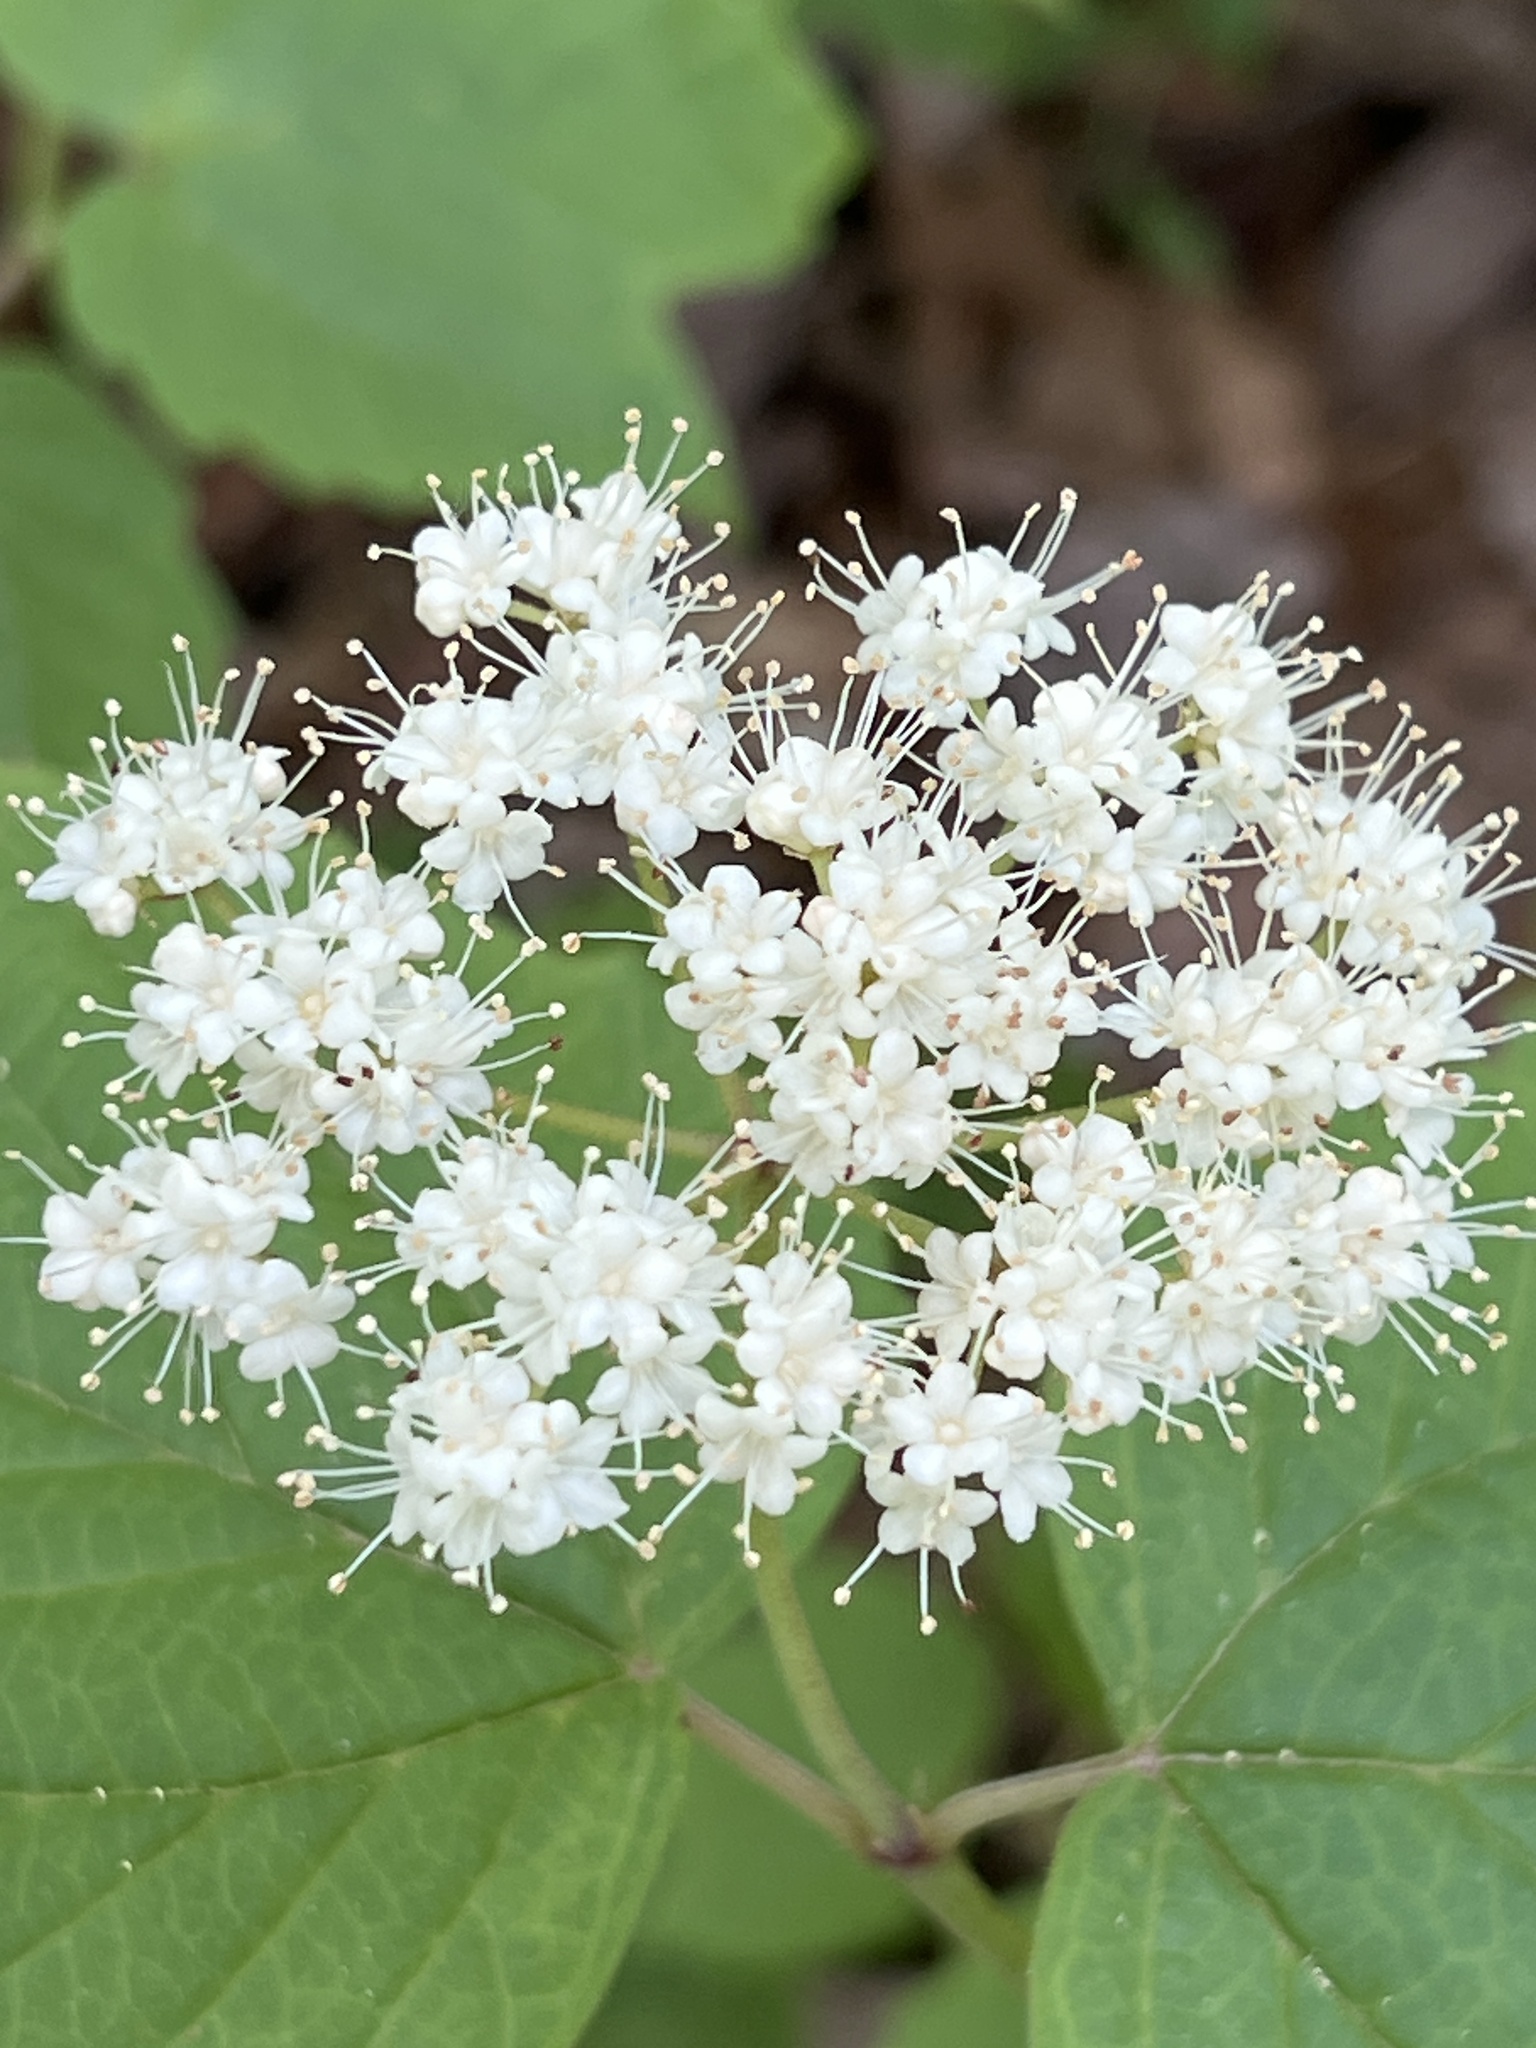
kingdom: Plantae
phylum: Tracheophyta
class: Magnoliopsida
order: Dipsacales
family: Viburnaceae
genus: Viburnum
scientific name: Viburnum acerifolium
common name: Dockmackie
